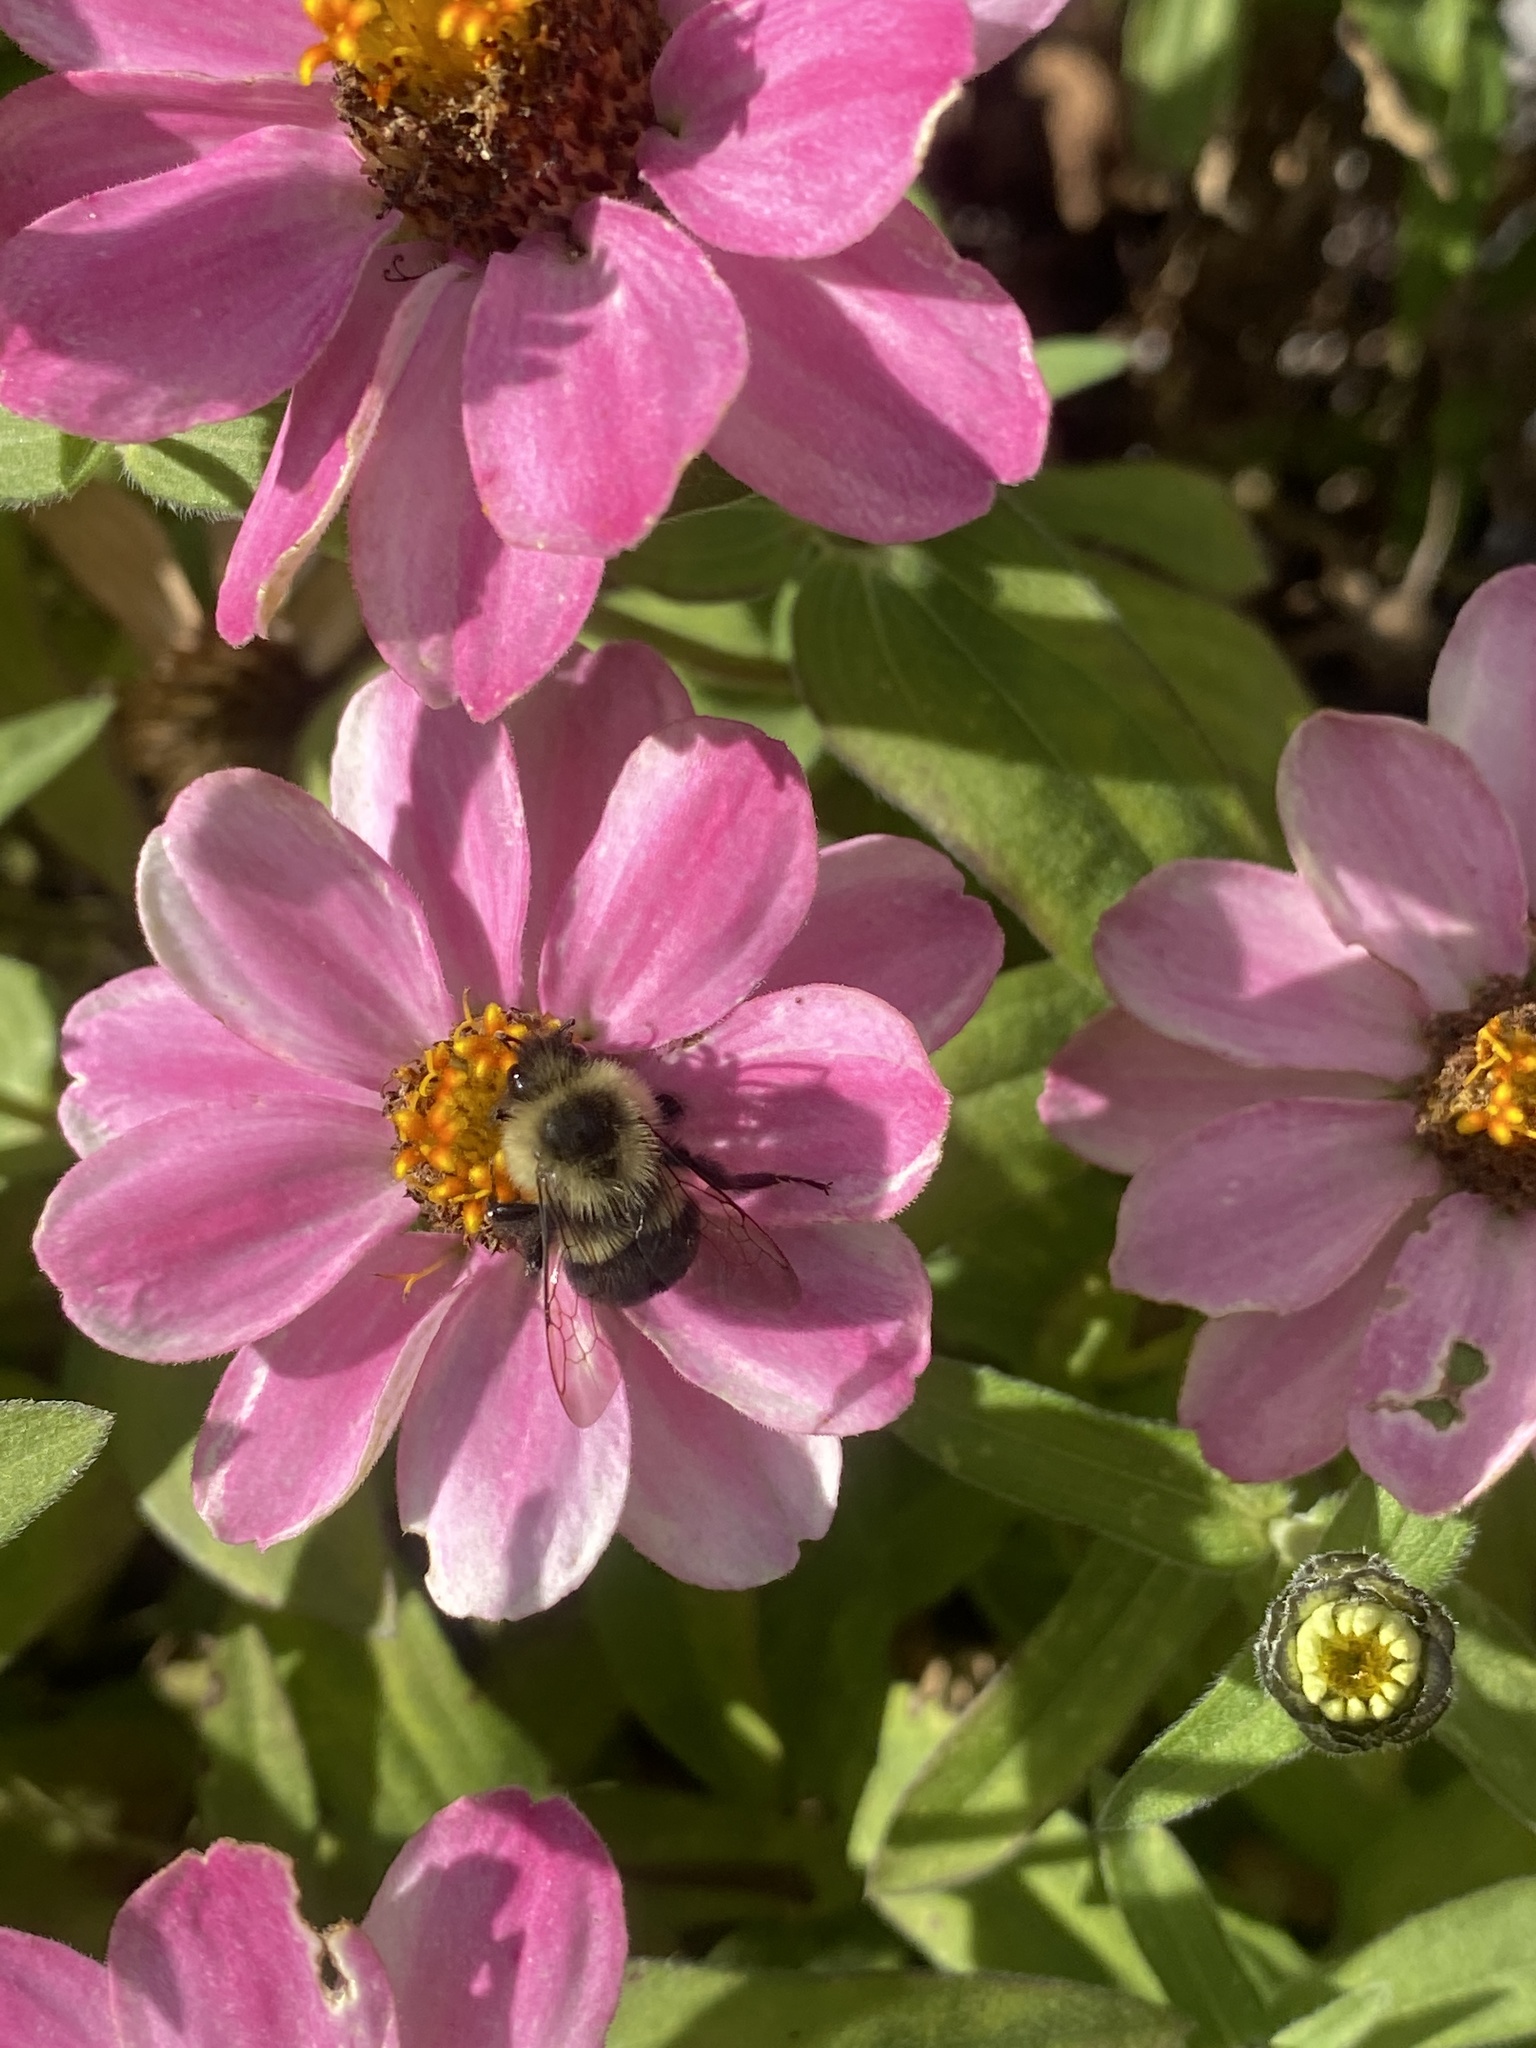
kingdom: Animalia
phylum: Arthropoda
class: Insecta
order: Hymenoptera
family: Apidae
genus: Bombus
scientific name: Bombus impatiens
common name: Common eastern bumble bee
